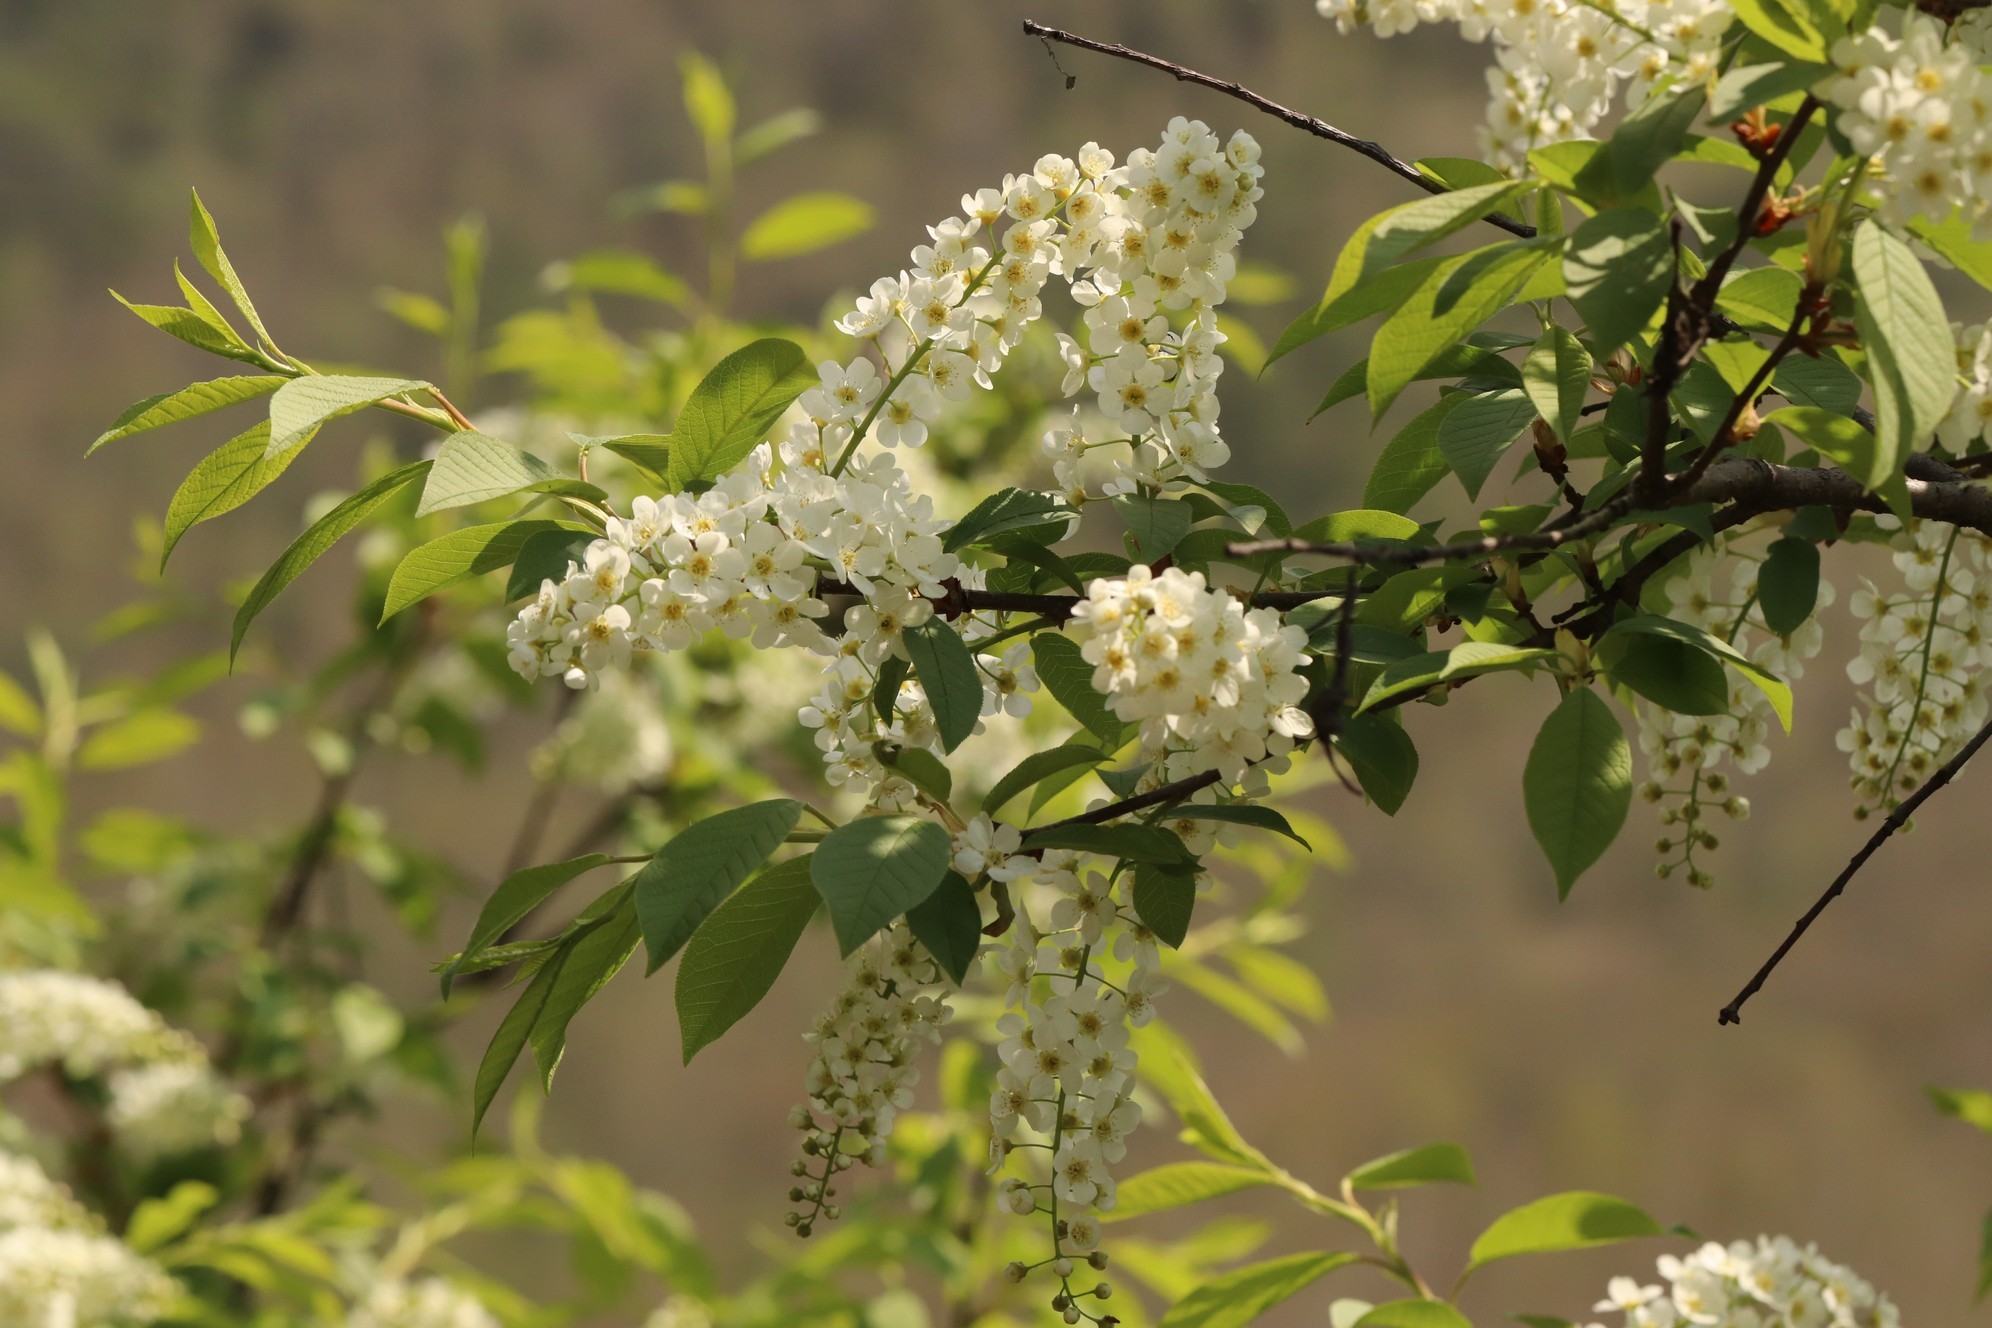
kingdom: Plantae
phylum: Tracheophyta
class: Magnoliopsida
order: Rosales
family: Rosaceae
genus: Prunus
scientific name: Prunus padus
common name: Bird cherry
